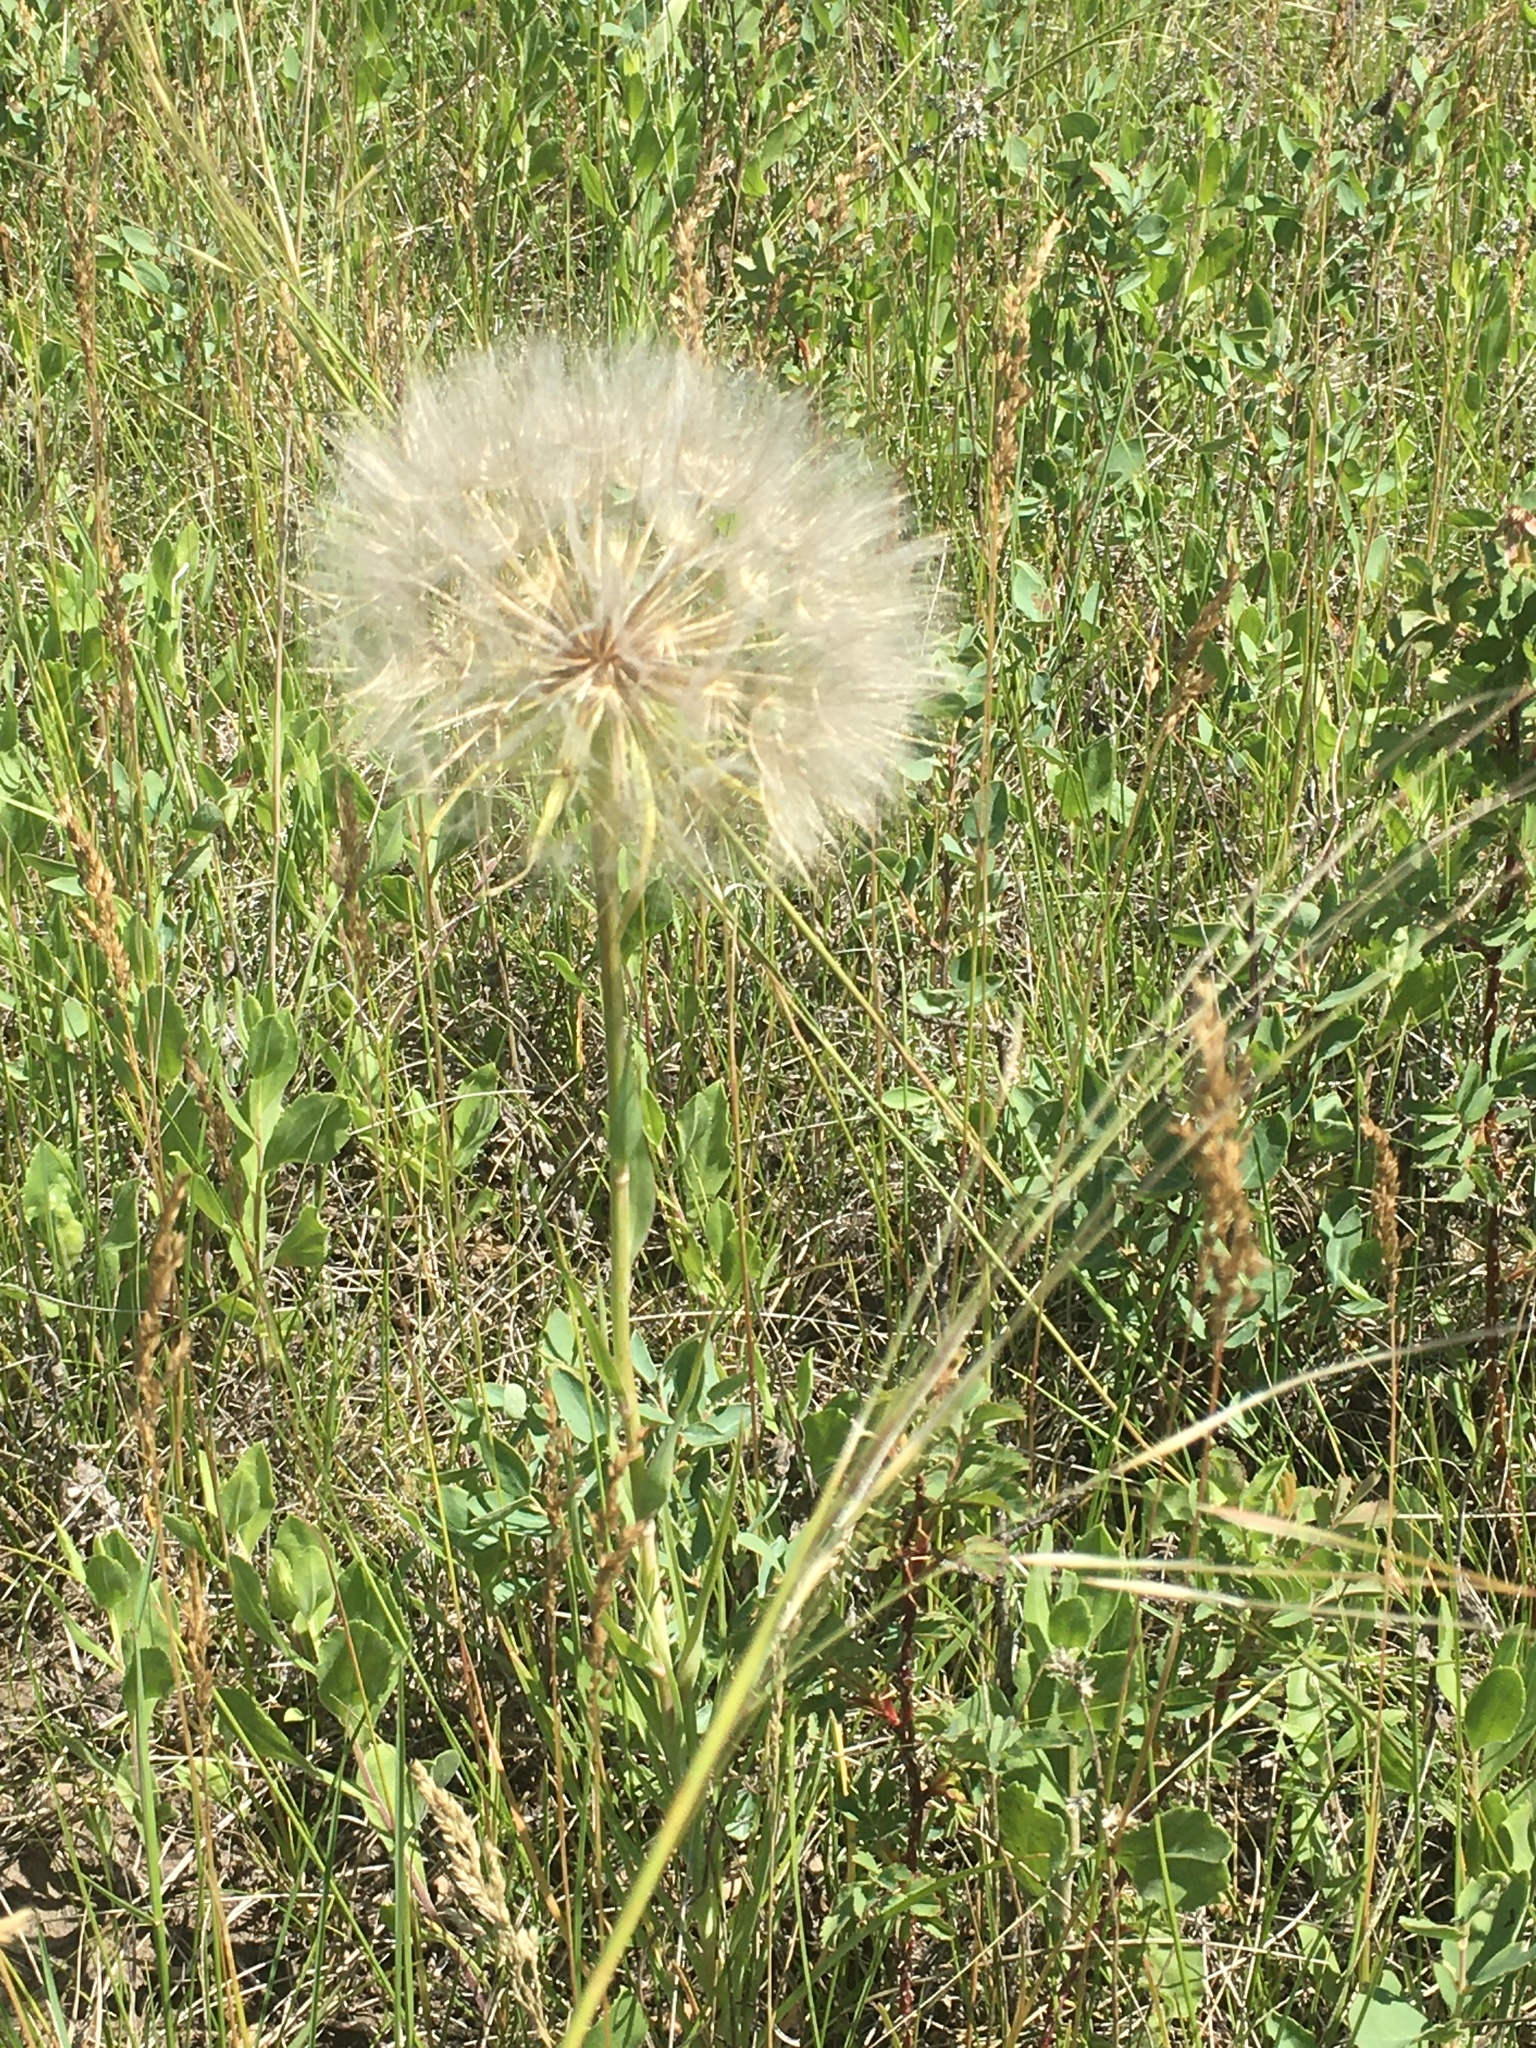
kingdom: Plantae
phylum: Tracheophyta
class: Magnoliopsida
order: Asterales
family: Asteraceae
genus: Tragopogon
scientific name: Tragopogon dubius
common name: Yellow salsify
